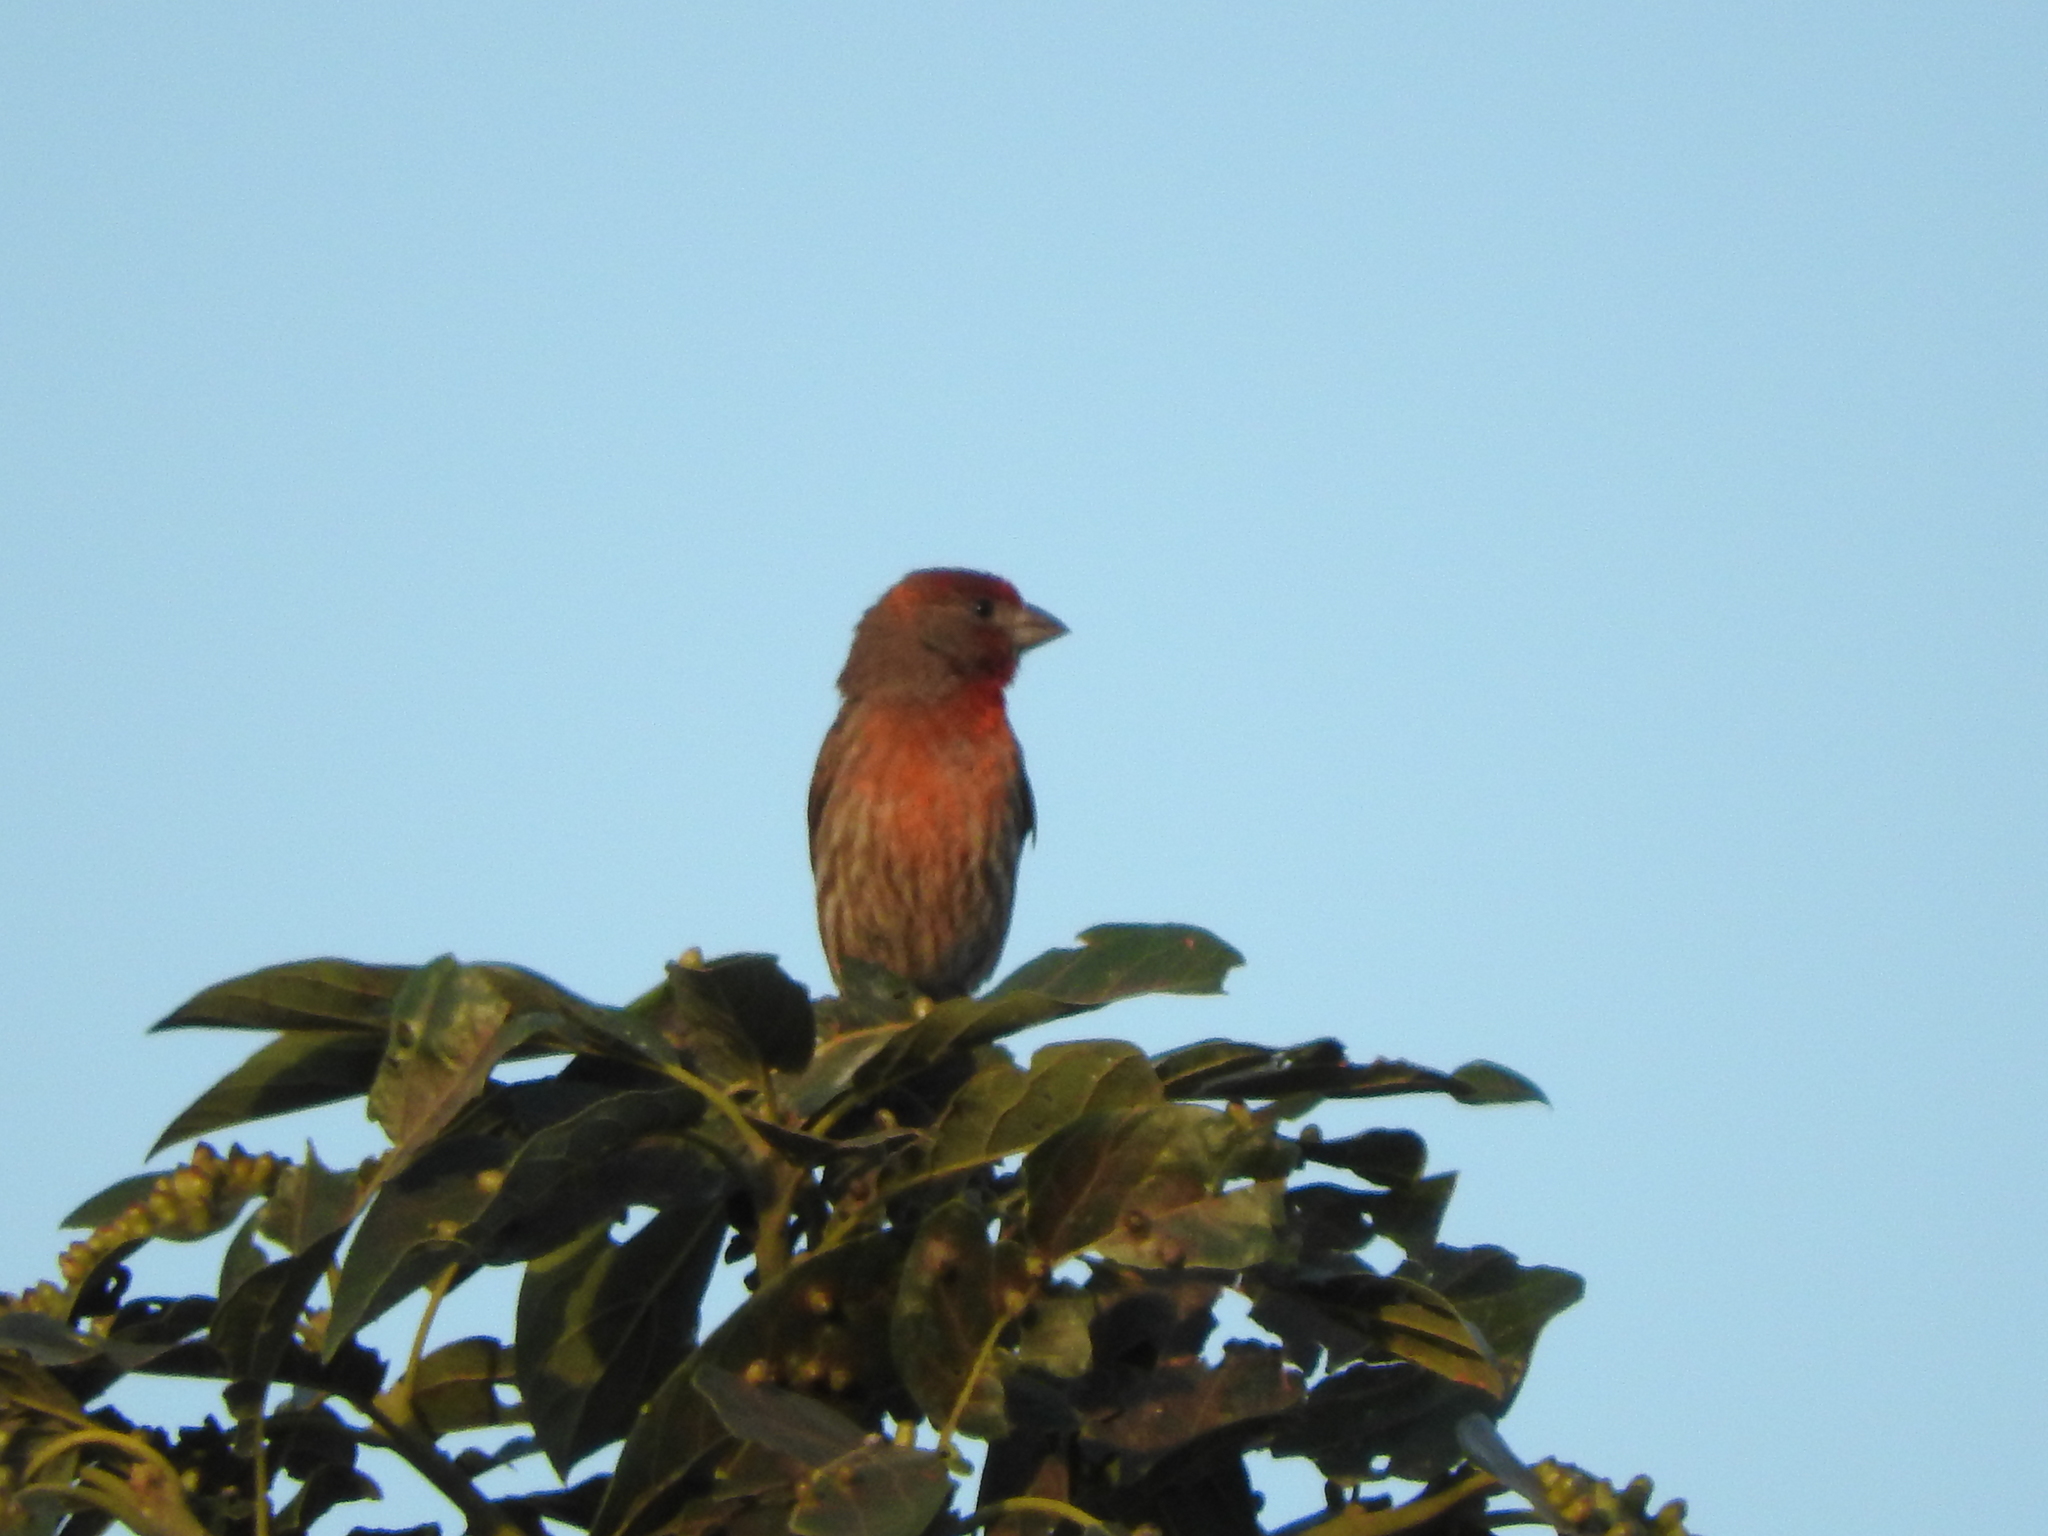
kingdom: Animalia
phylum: Chordata
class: Aves
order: Passeriformes
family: Fringillidae
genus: Haemorhous
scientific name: Haemorhous mexicanus
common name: House finch
